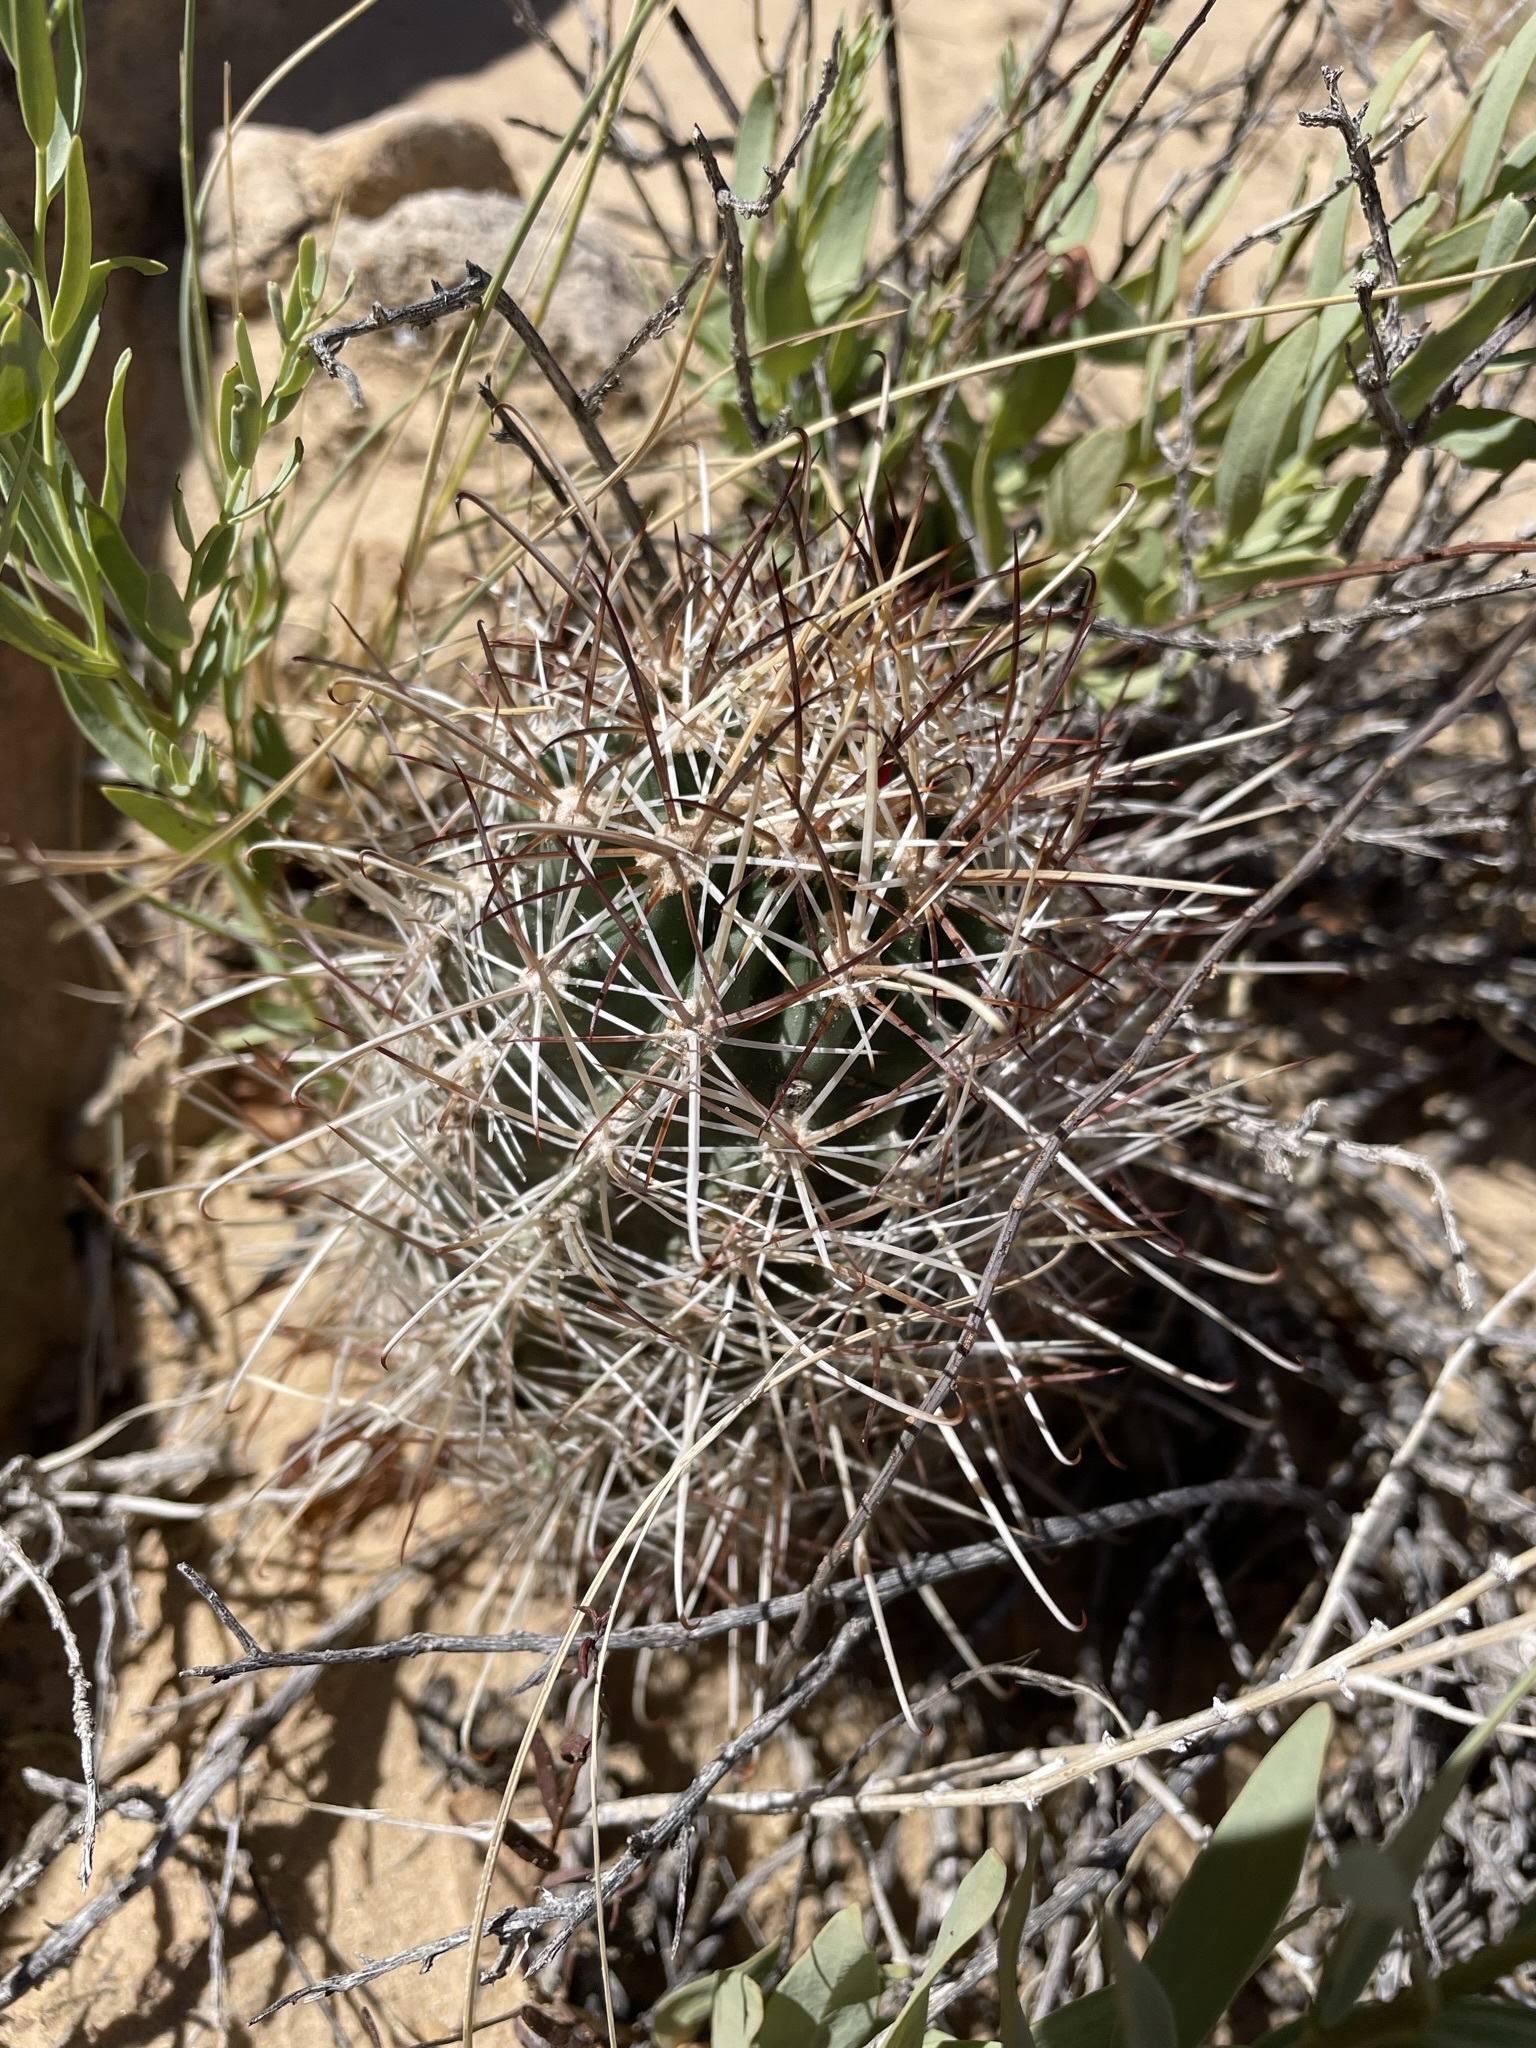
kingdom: Plantae
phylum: Tracheophyta
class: Magnoliopsida
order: Caryophyllales
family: Cactaceae
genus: Sclerocactus
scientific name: Sclerocactus parviflorus
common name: Small-flower fishhook cactus
